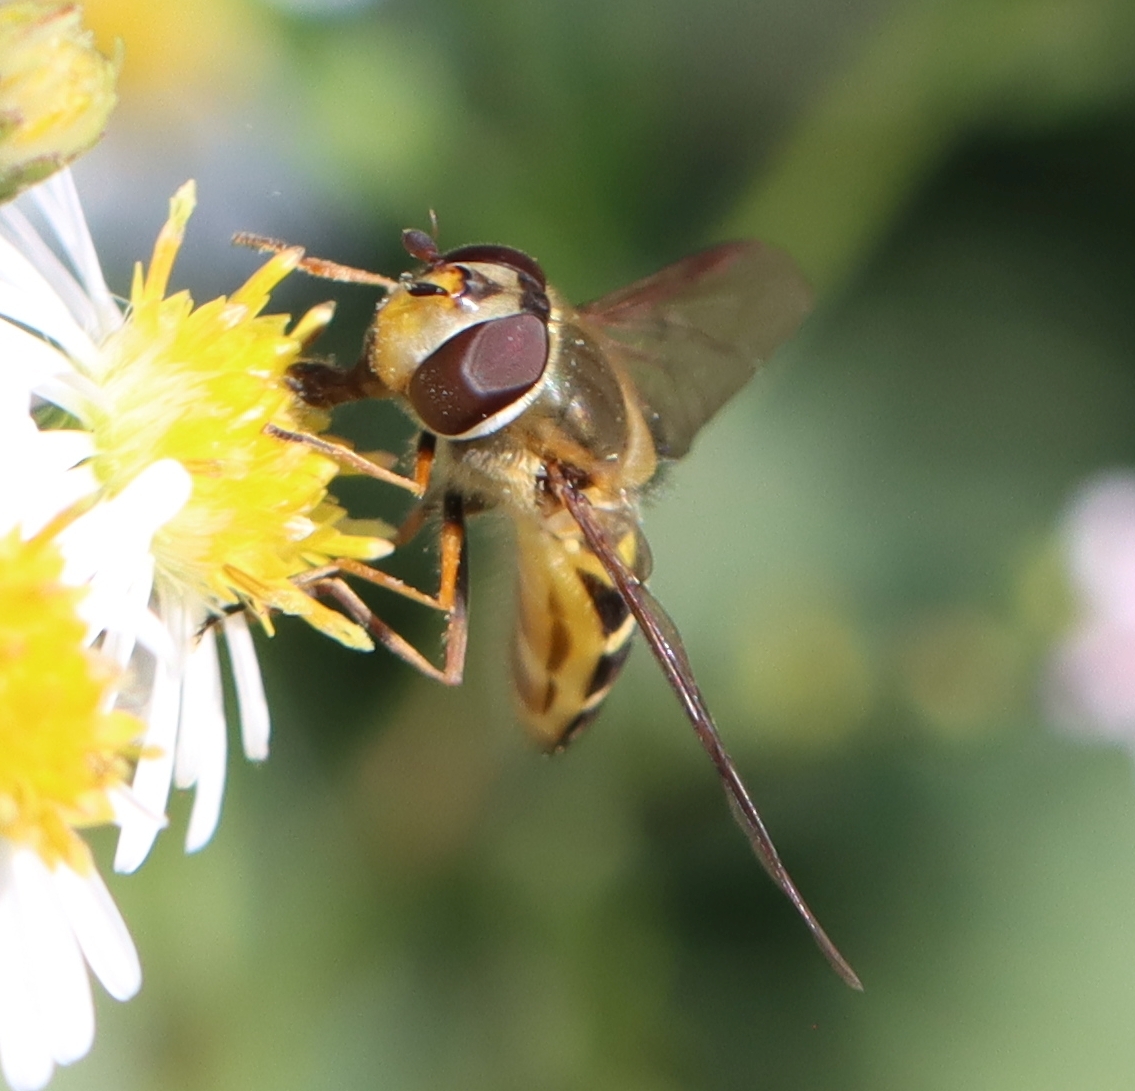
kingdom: Animalia
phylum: Arthropoda
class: Insecta
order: Diptera
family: Syrphidae
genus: Syrphus
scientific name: Syrphus torvus
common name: Hairy-eyed flower fly
